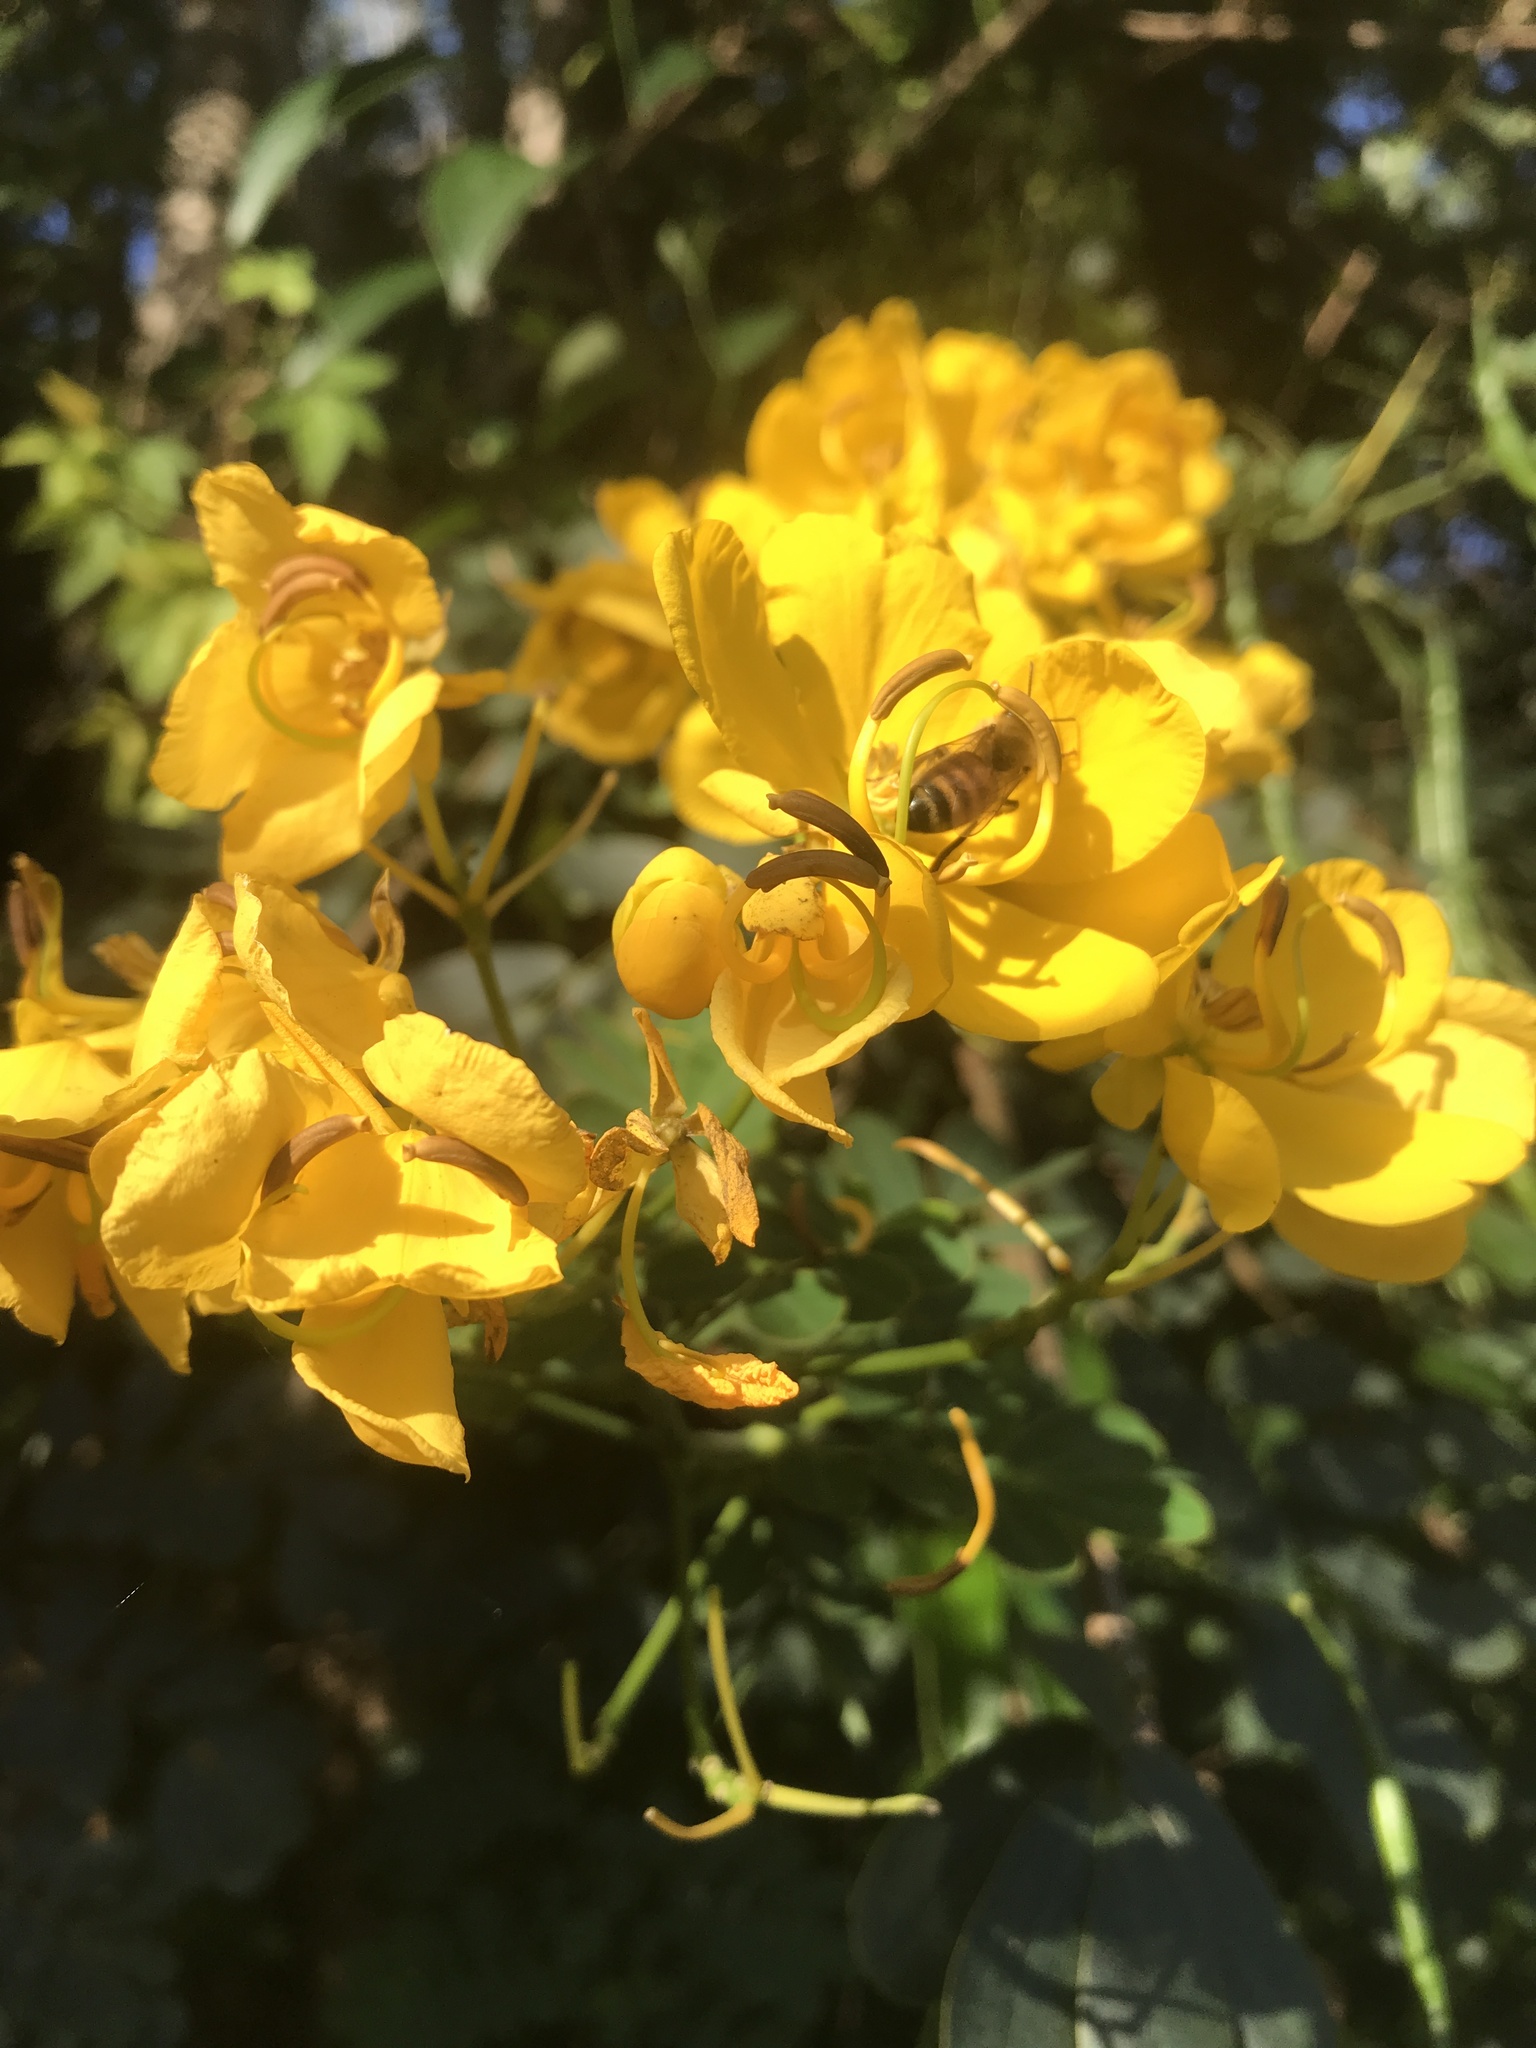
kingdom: Plantae
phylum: Tracheophyta
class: Magnoliopsida
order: Fabales
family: Fabaceae
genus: Senna
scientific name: Senna pendula
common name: Easter cassia
